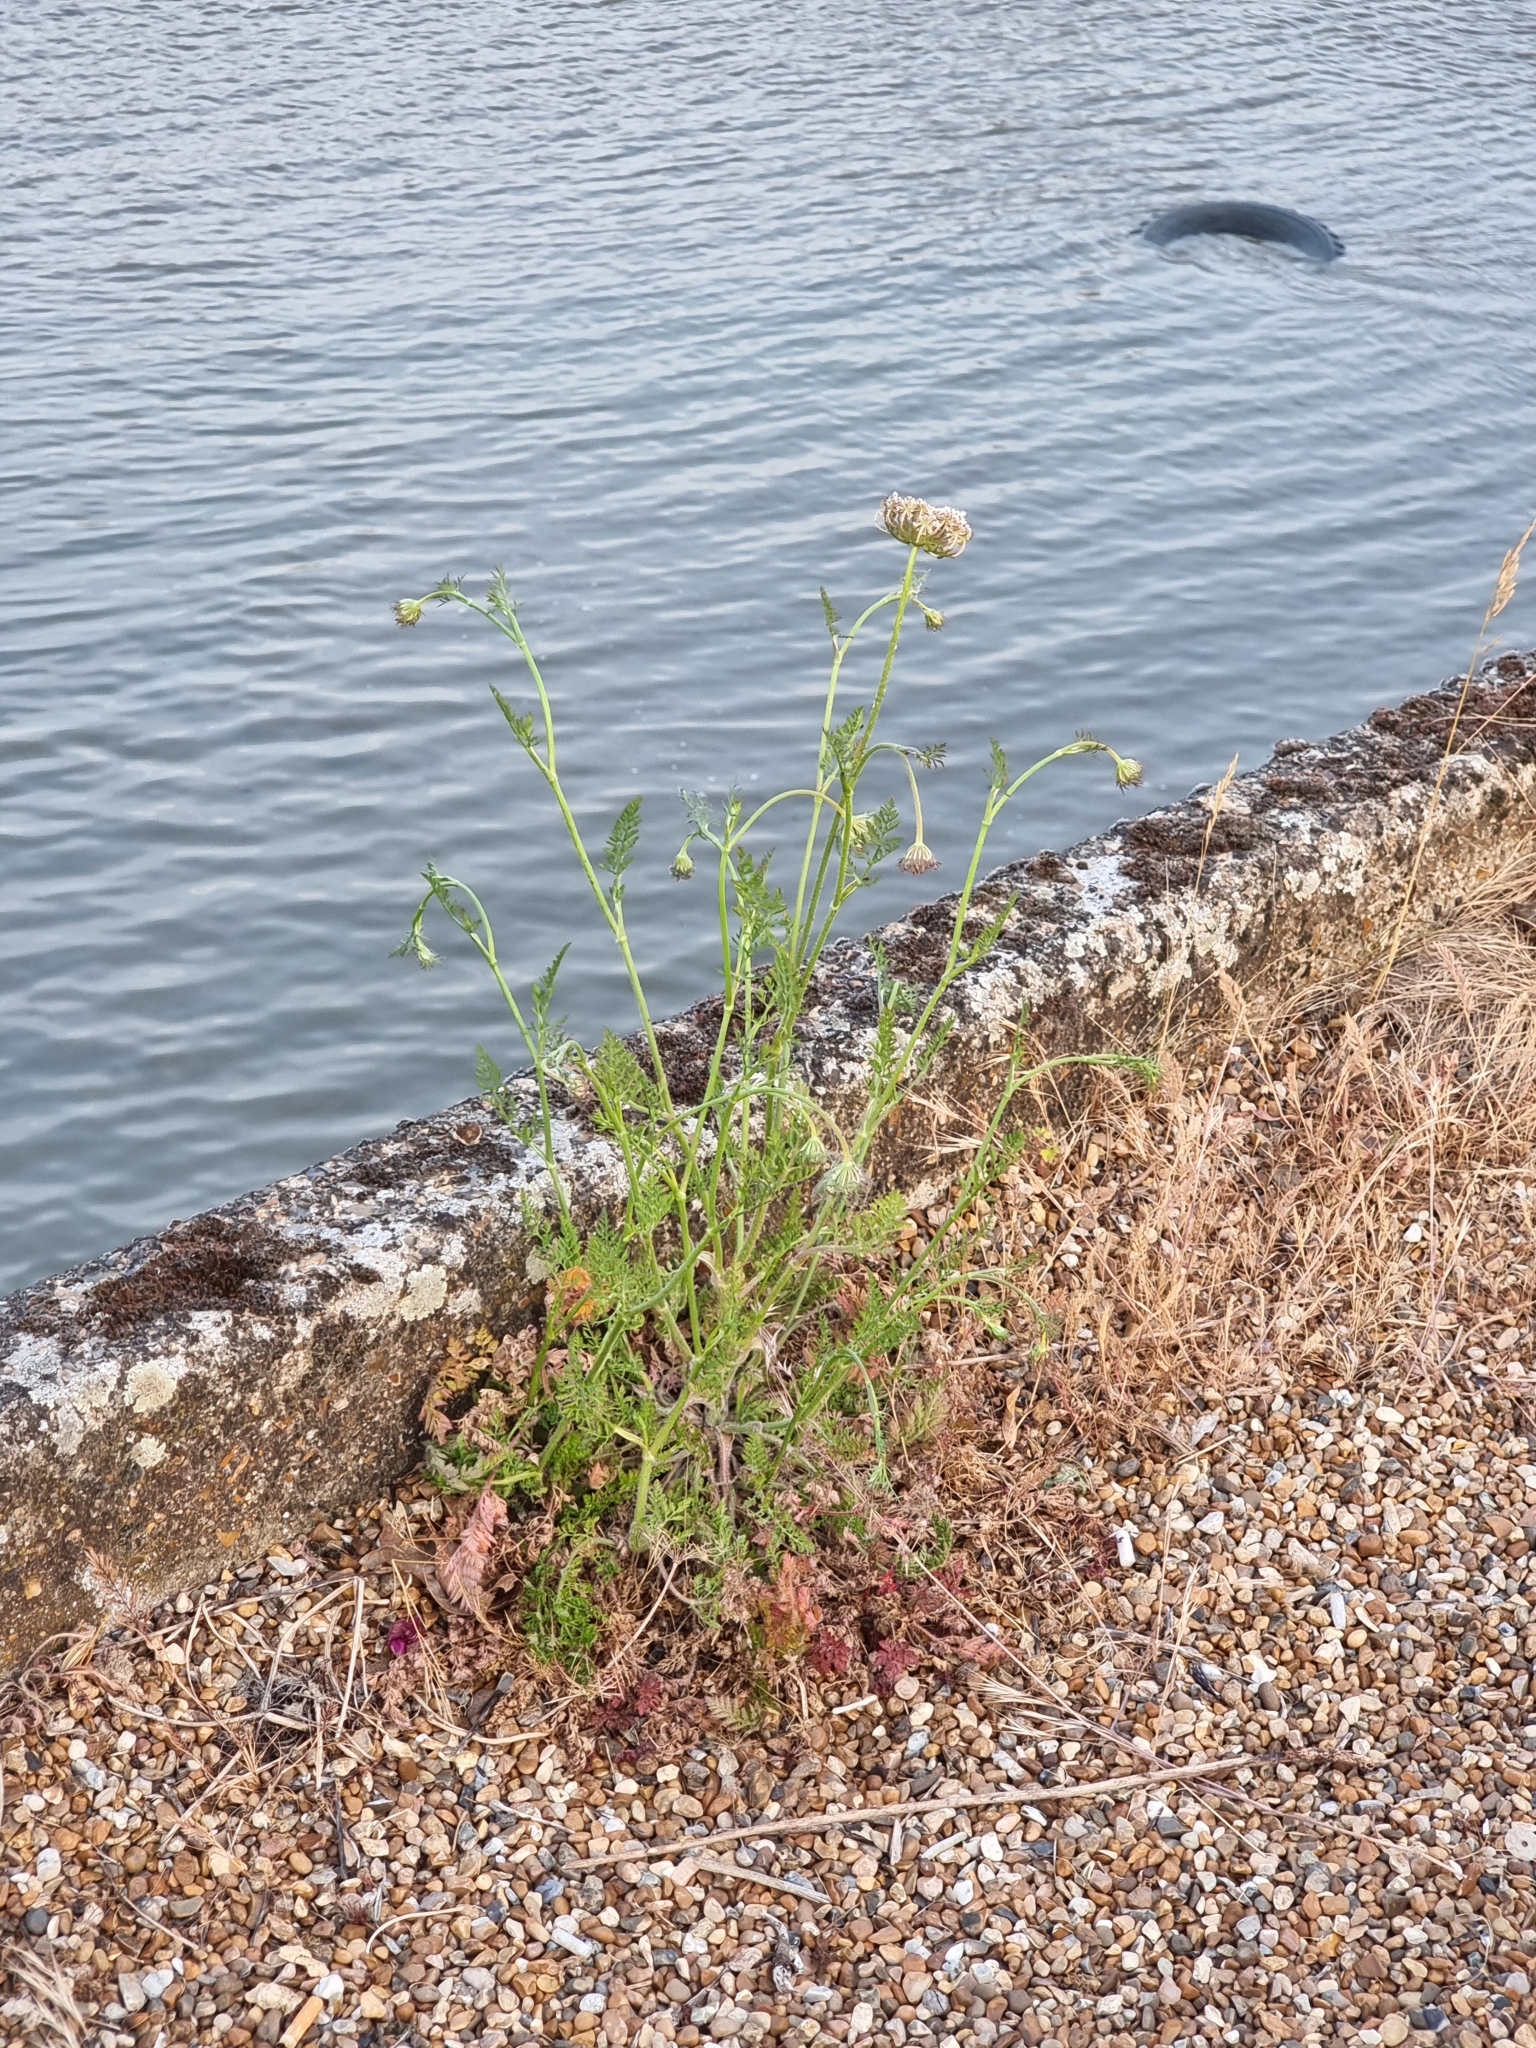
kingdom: Plantae
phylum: Tracheophyta
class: Magnoliopsida
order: Apiales
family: Apiaceae
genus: Daucus
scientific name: Daucus carota
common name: Wild carrot
